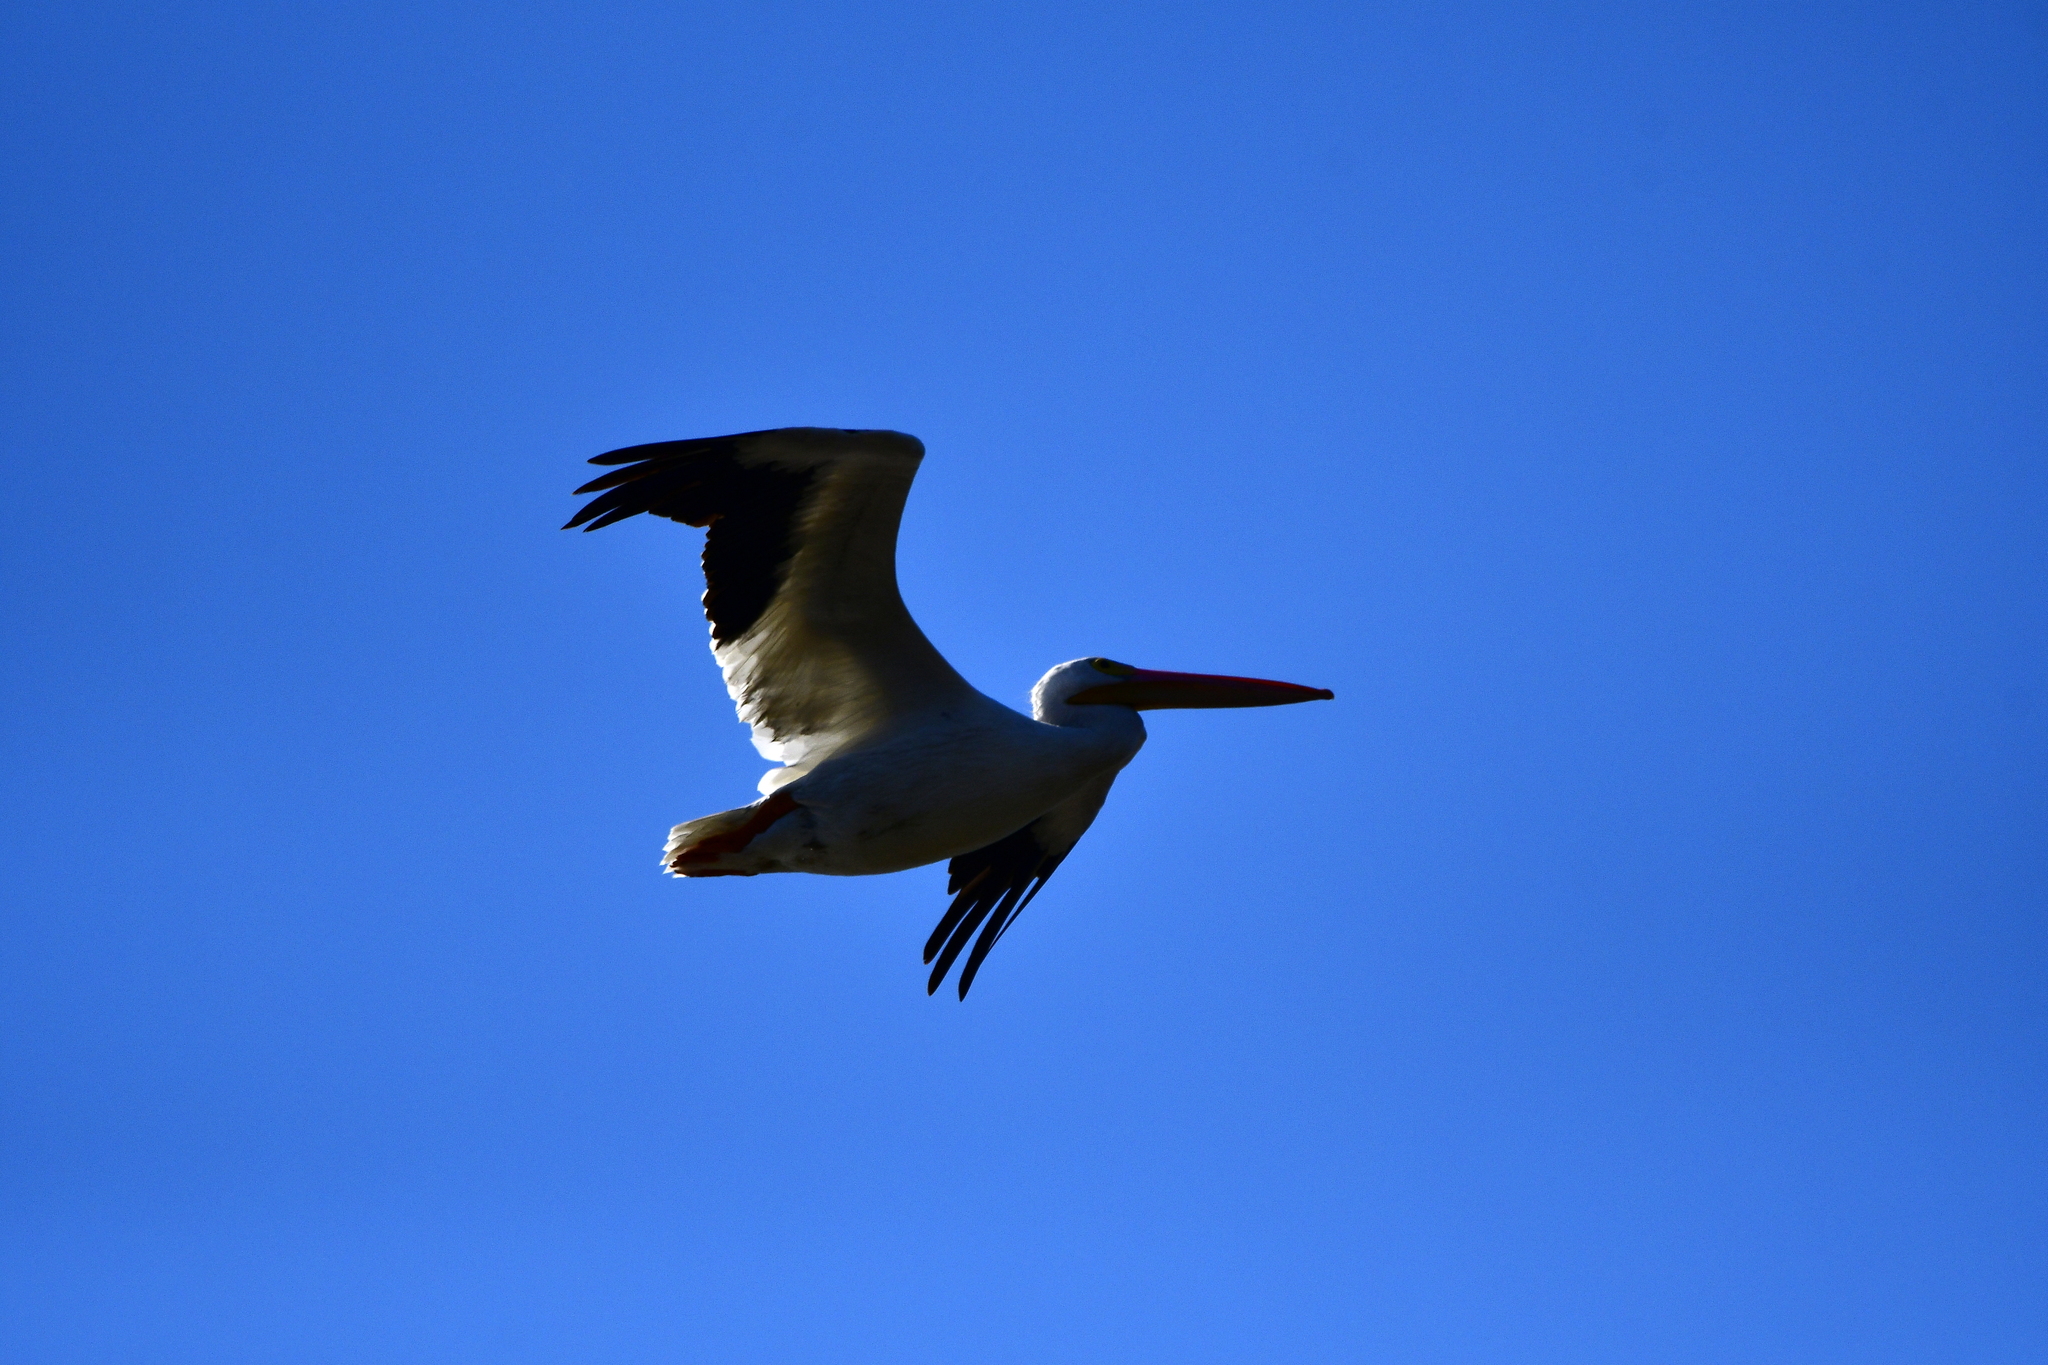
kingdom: Animalia
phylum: Chordata
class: Aves
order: Pelecaniformes
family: Pelecanidae
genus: Pelecanus
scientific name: Pelecanus erythrorhynchos
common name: American white pelican
